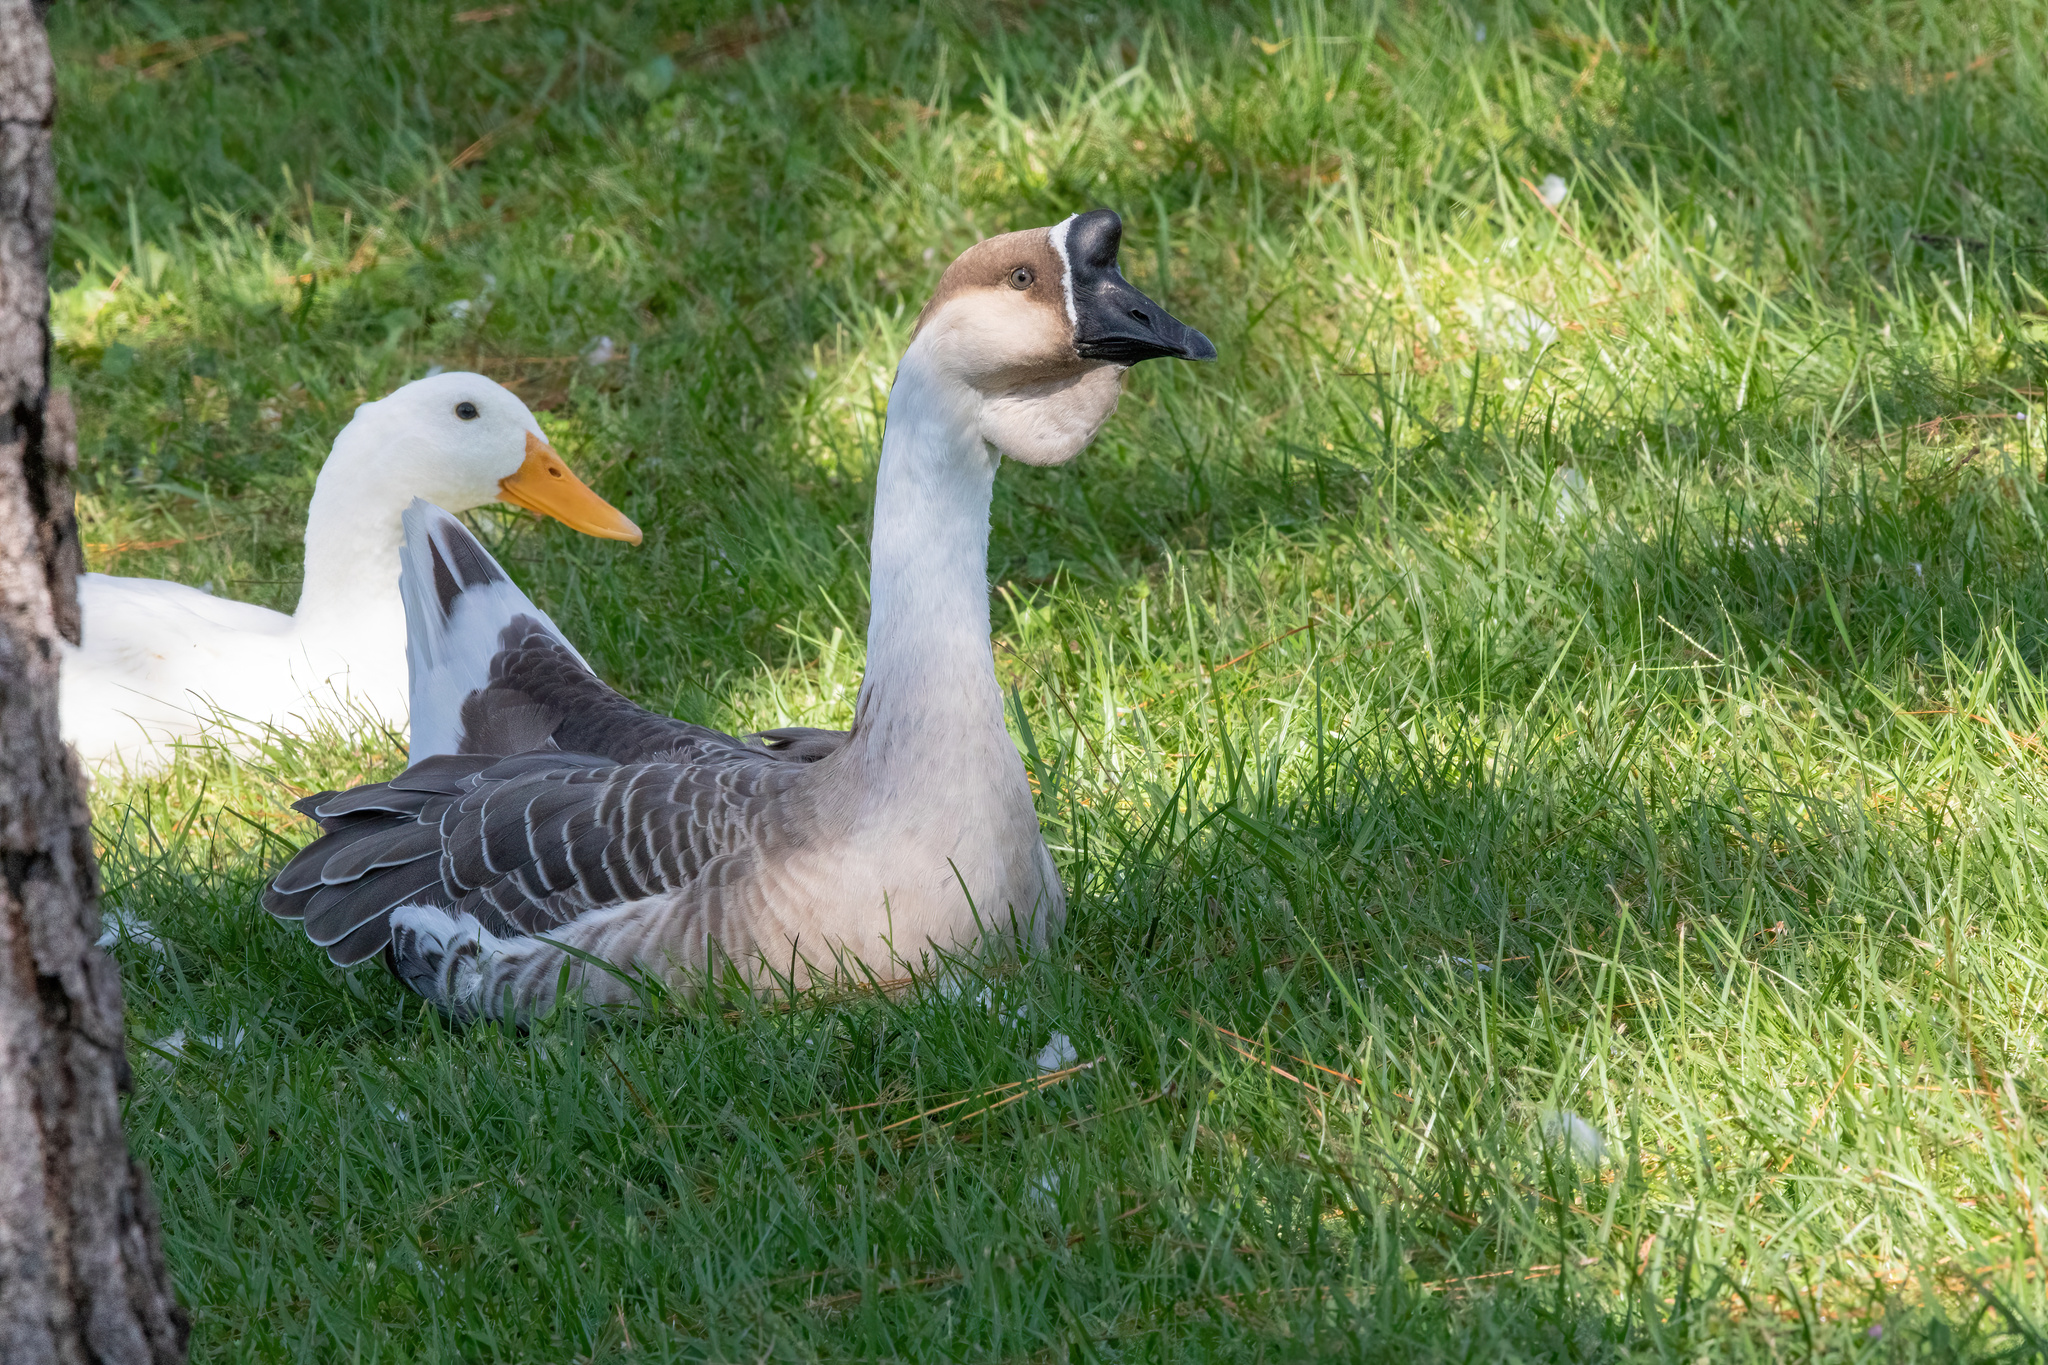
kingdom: Animalia
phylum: Chordata
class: Aves
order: Anseriformes
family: Anatidae
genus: Anser
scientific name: Anser cygnoides
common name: Swan goose
